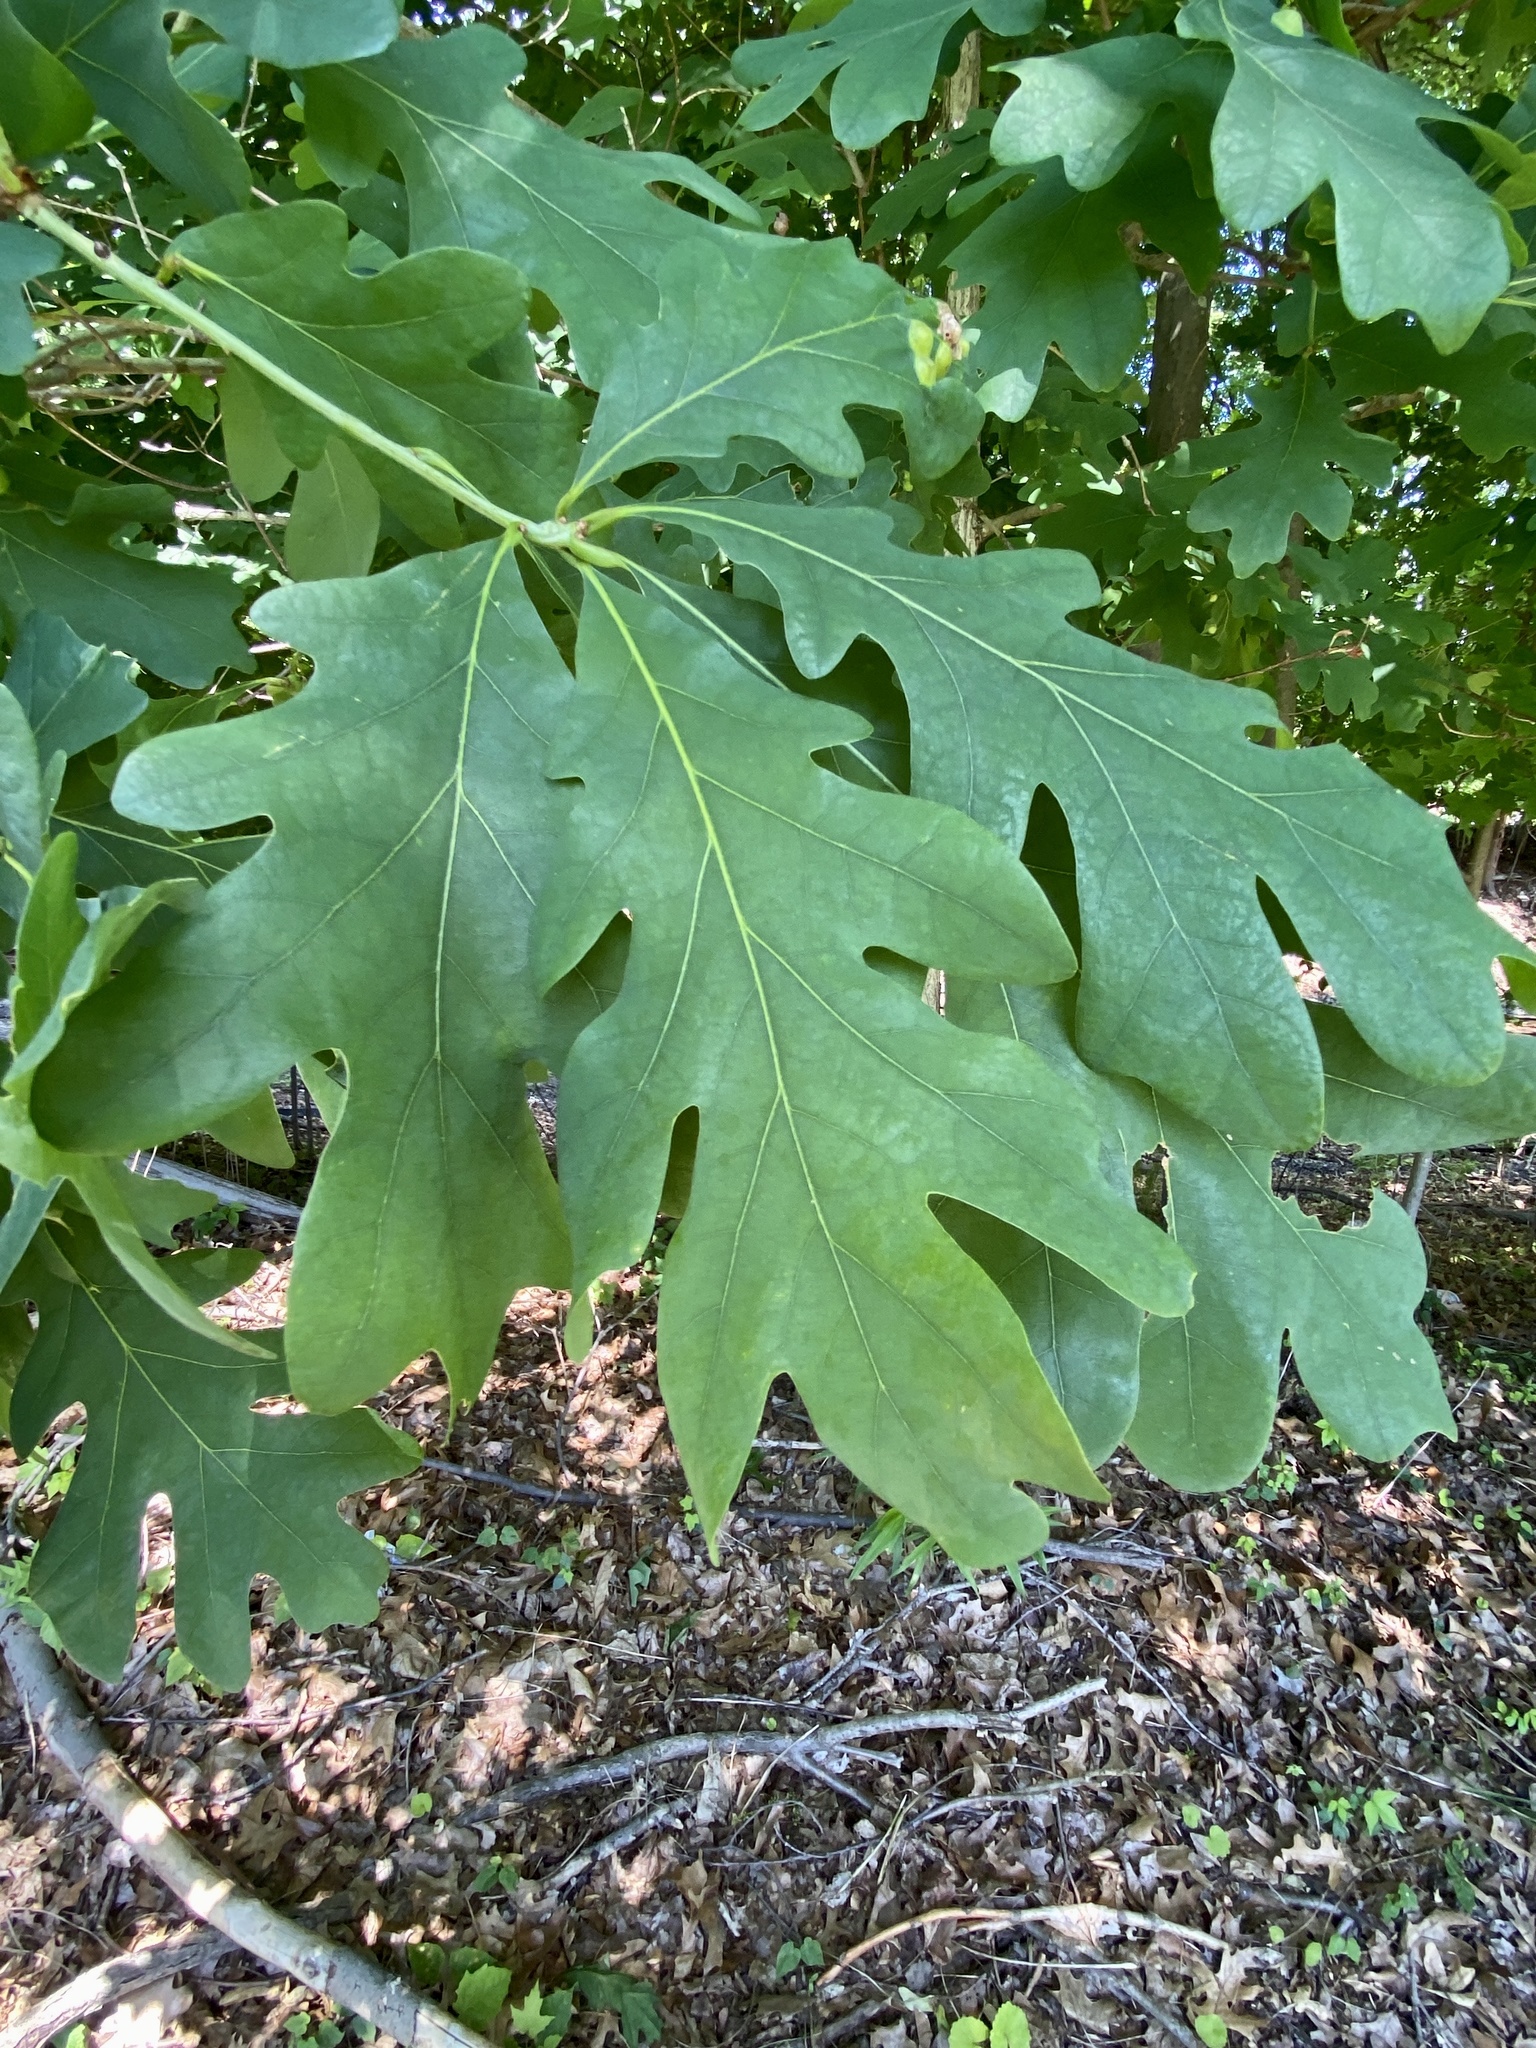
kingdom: Animalia
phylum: Arthropoda
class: Insecta
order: Hymenoptera
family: Cynipidae
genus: Callirhytis
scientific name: Callirhytis clavula
